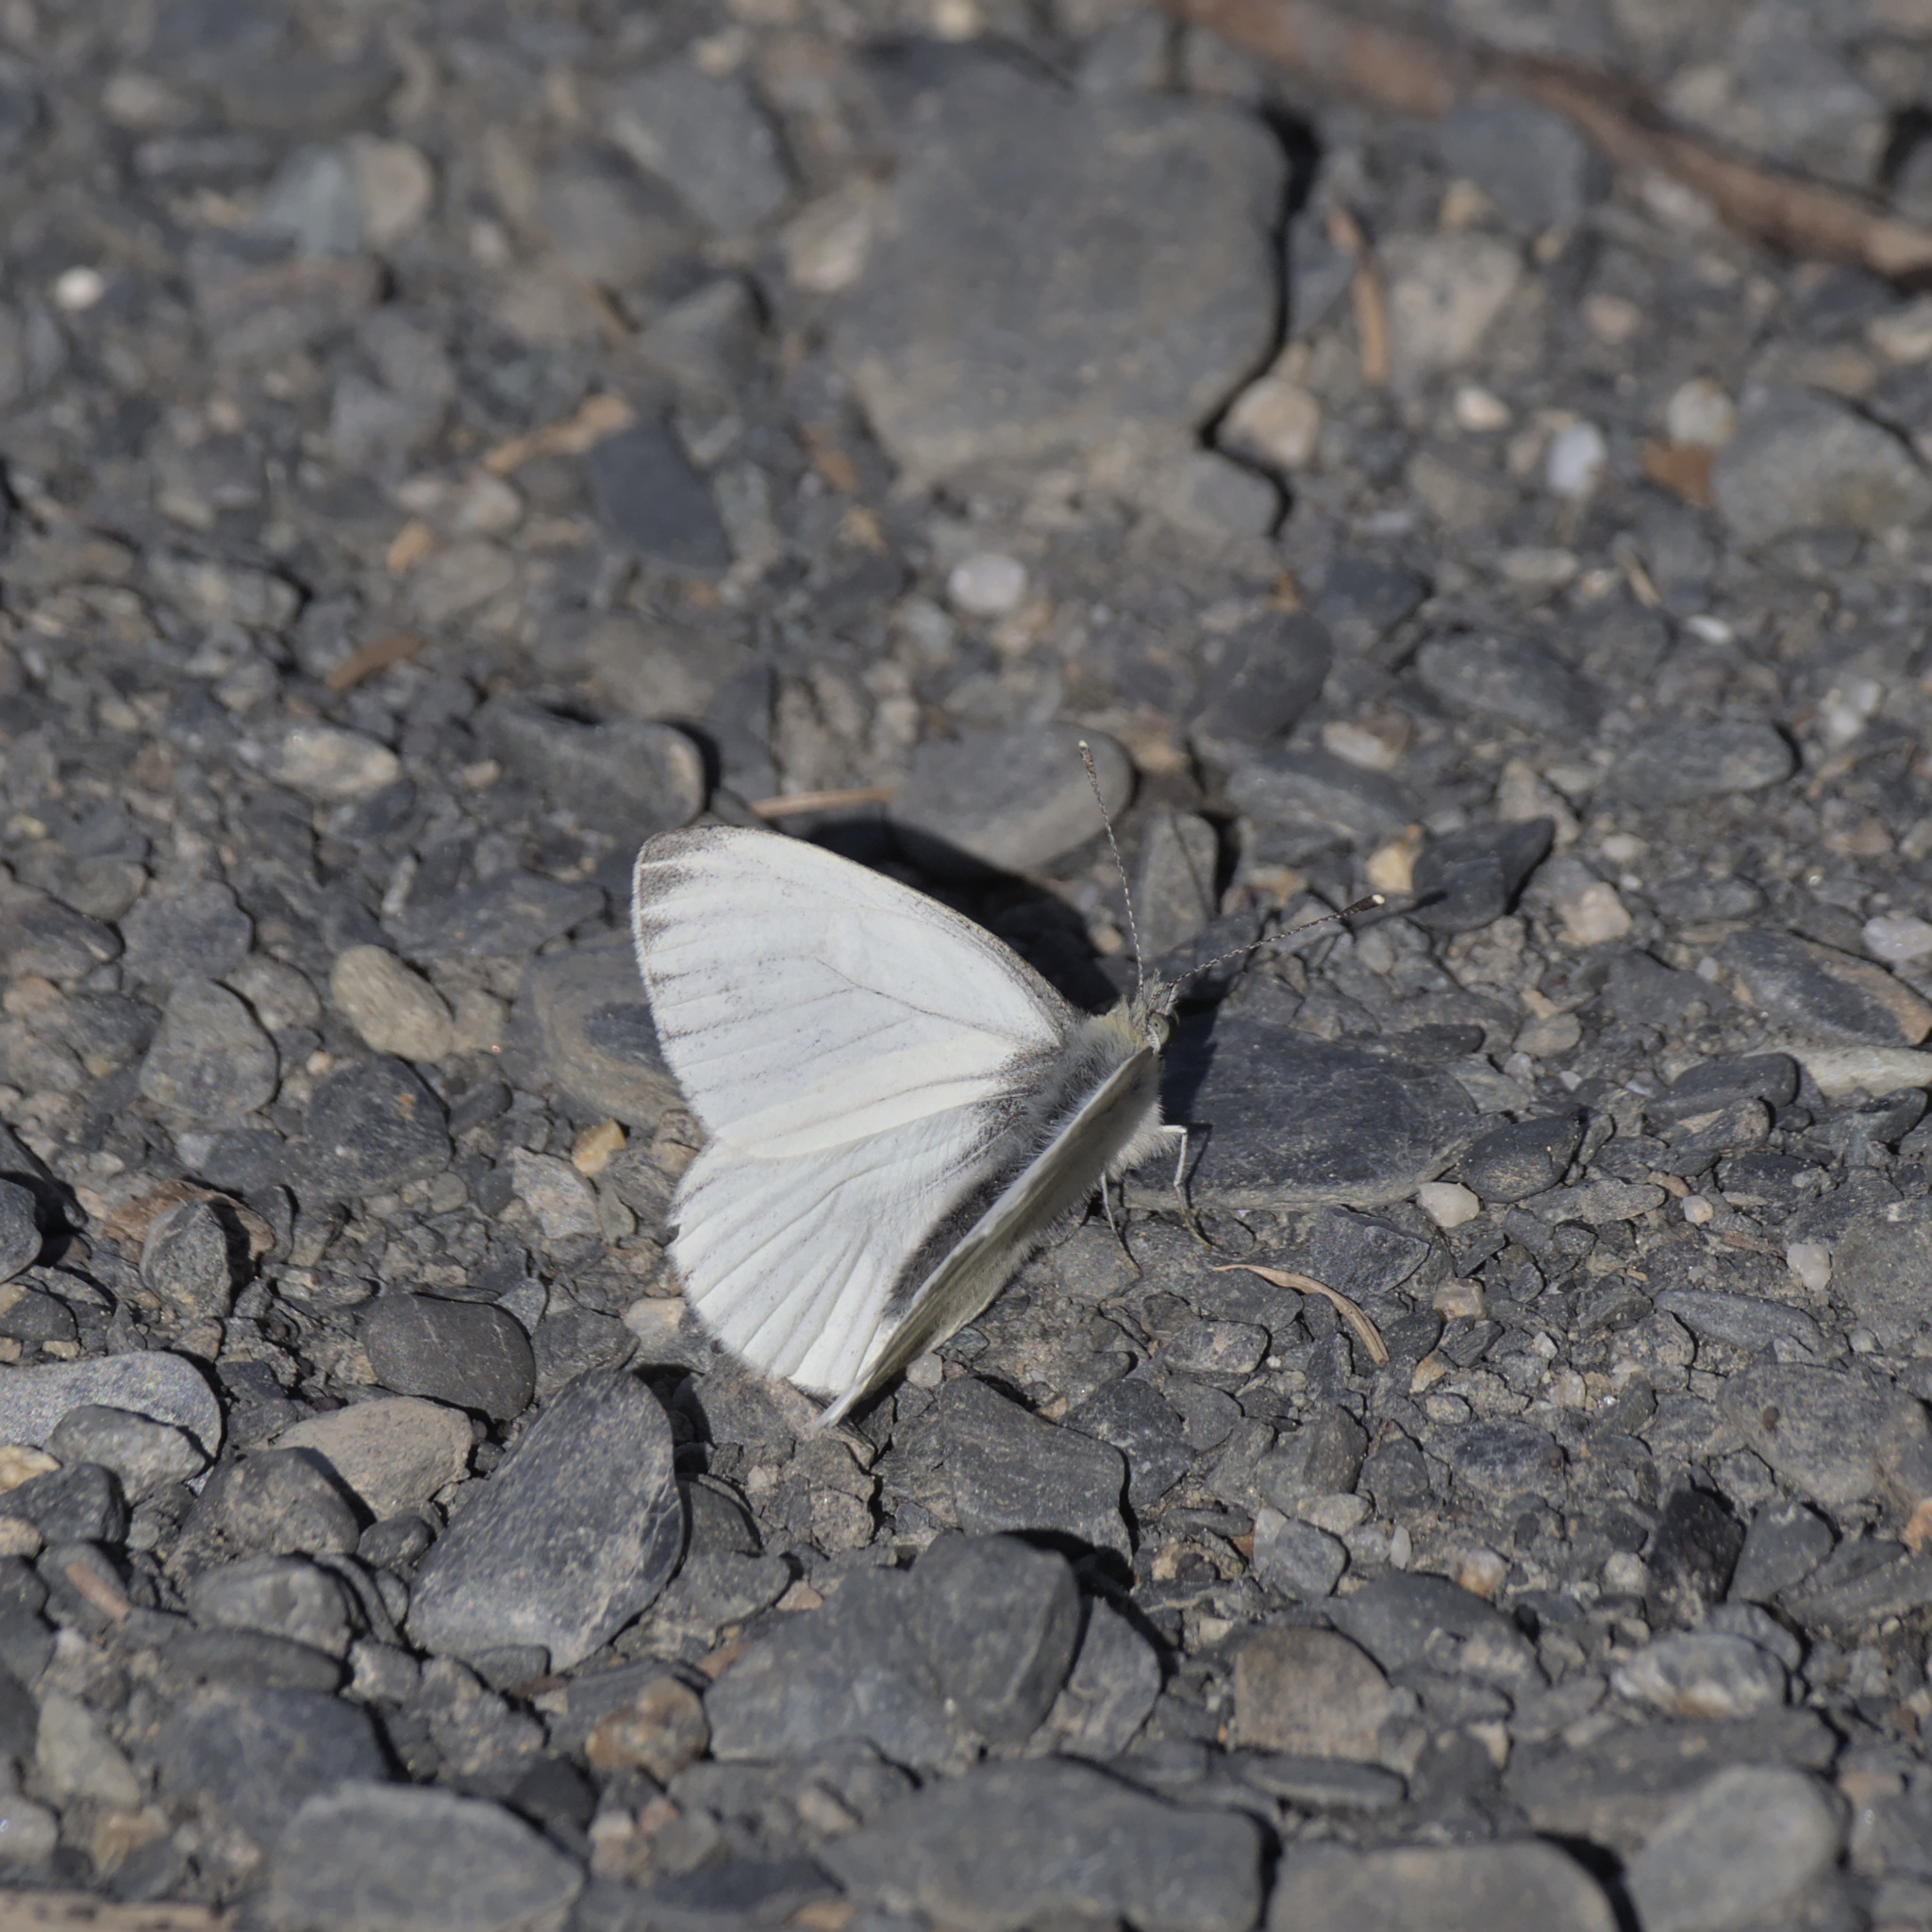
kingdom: Animalia
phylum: Arthropoda
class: Insecta
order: Lepidoptera
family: Pieridae
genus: Pieris
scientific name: Pieris marginalis
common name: Margined white
